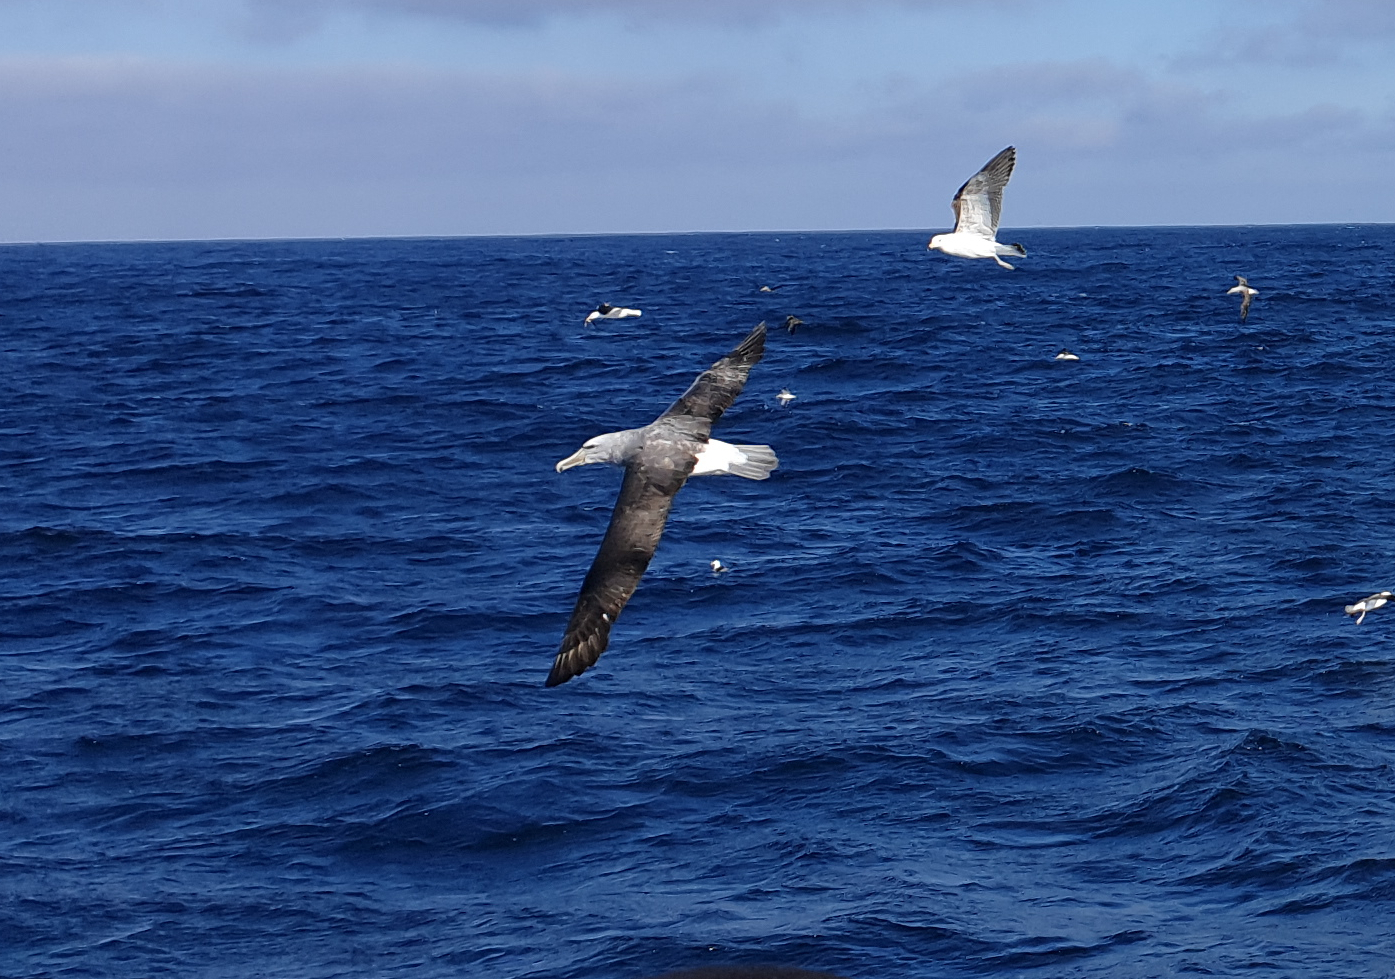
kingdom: Animalia
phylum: Chordata
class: Aves
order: Procellariiformes
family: Diomedeidae
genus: Thalassarche
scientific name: Thalassarche salvini
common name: Salvin's albatross
